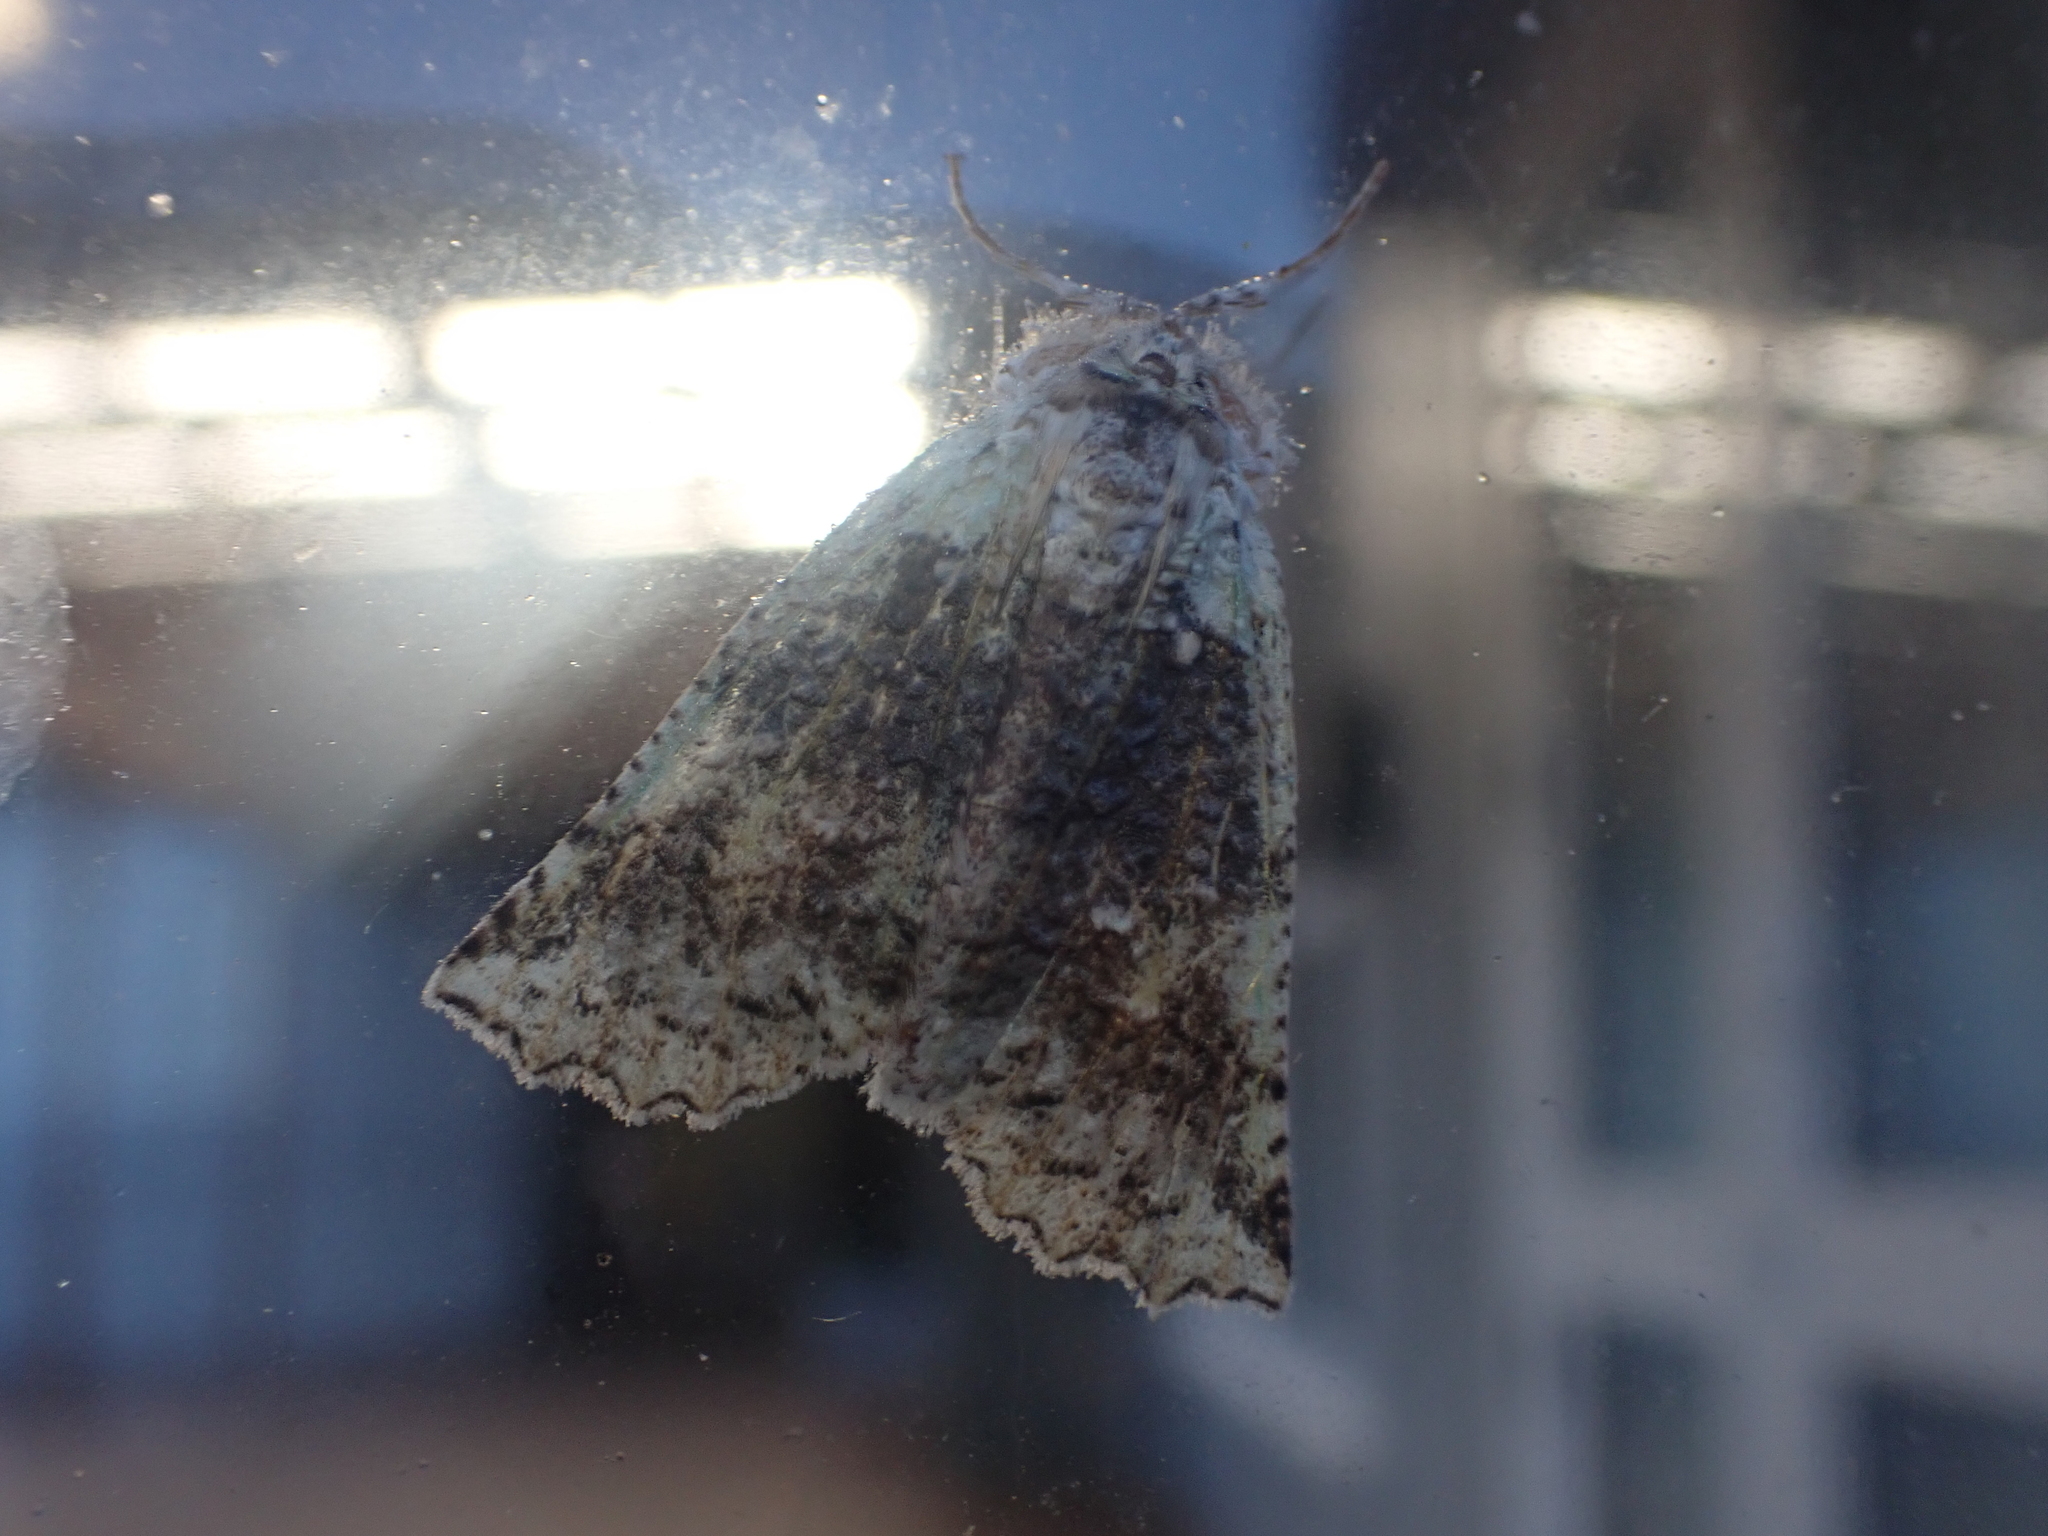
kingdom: Animalia
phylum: Arthropoda
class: Insecta
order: Lepidoptera
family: Geometridae
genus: Declana
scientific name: Declana floccosa
